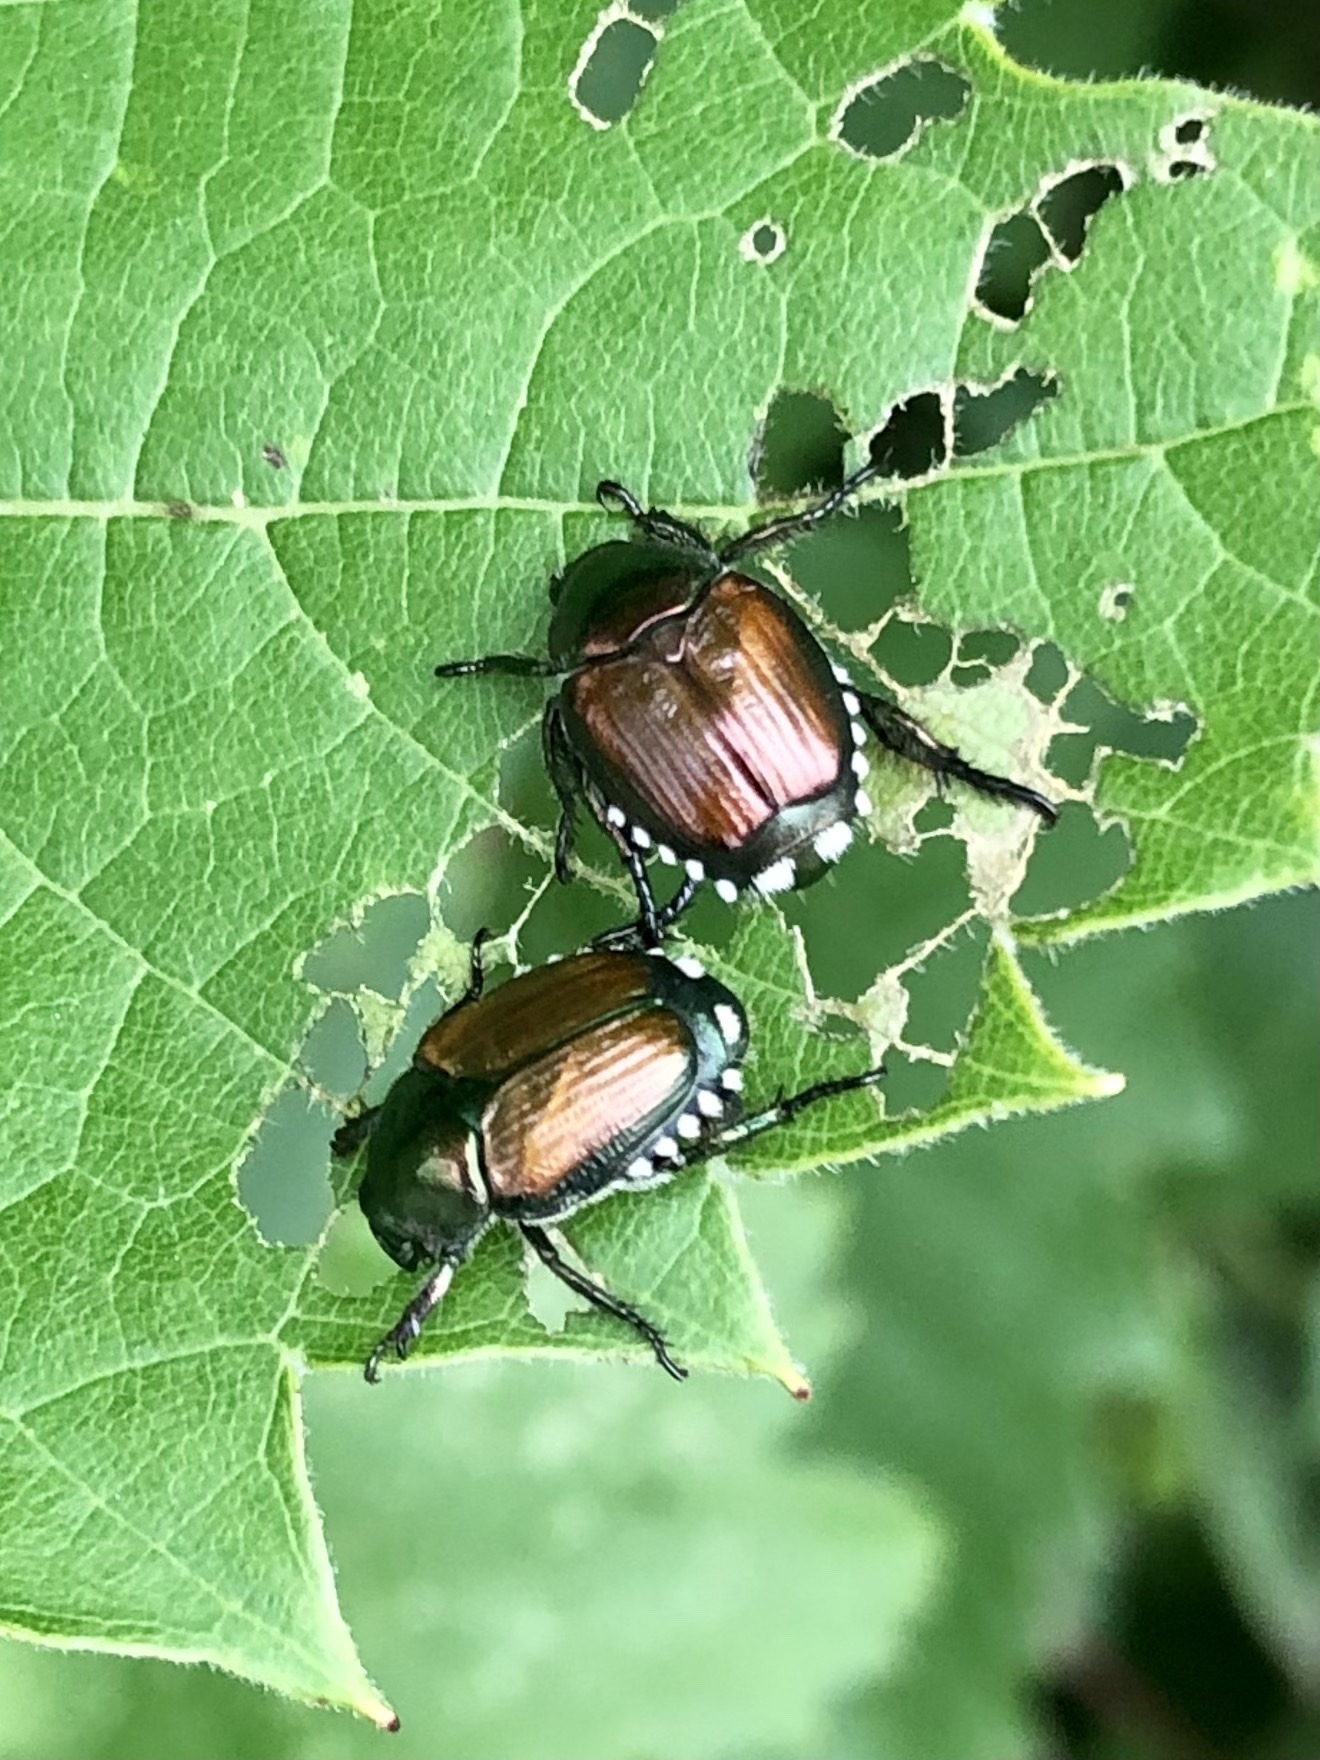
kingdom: Animalia
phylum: Arthropoda
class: Insecta
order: Coleoptera
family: Scarabaeidae
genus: Popillia
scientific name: Popillia japonica
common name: Japanese beetle
